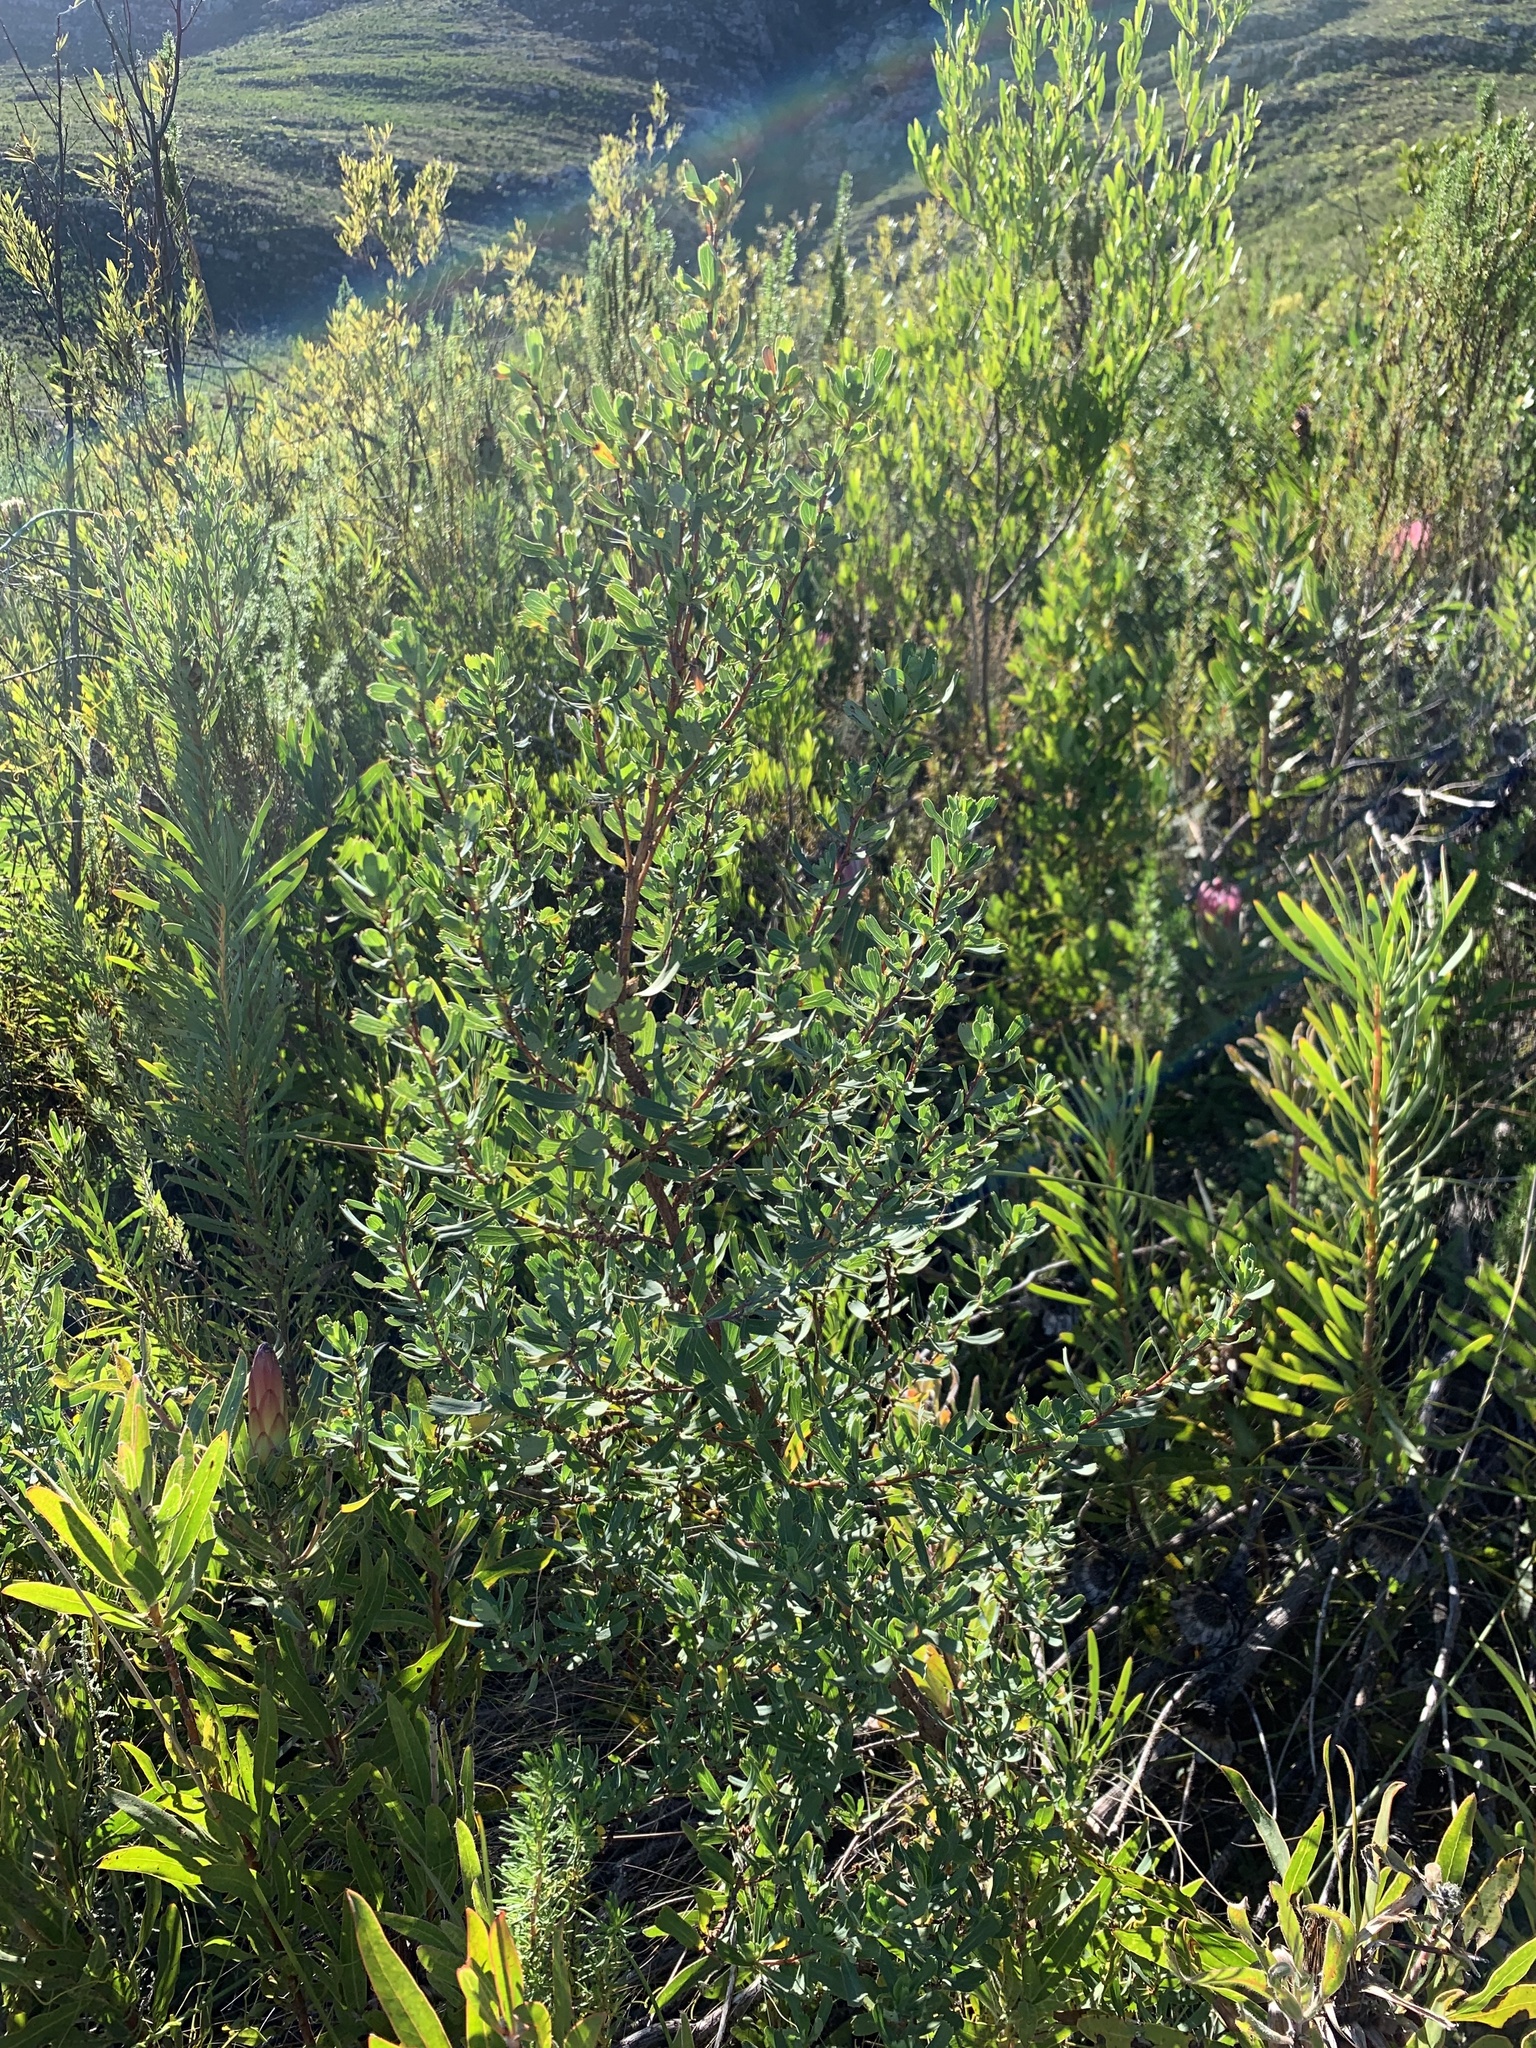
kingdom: Plantae
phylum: Tracheophyta
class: Magnoliopsida
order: Rosales
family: Rosaceae
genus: Cliffortia
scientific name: Cliffortia cuneata
